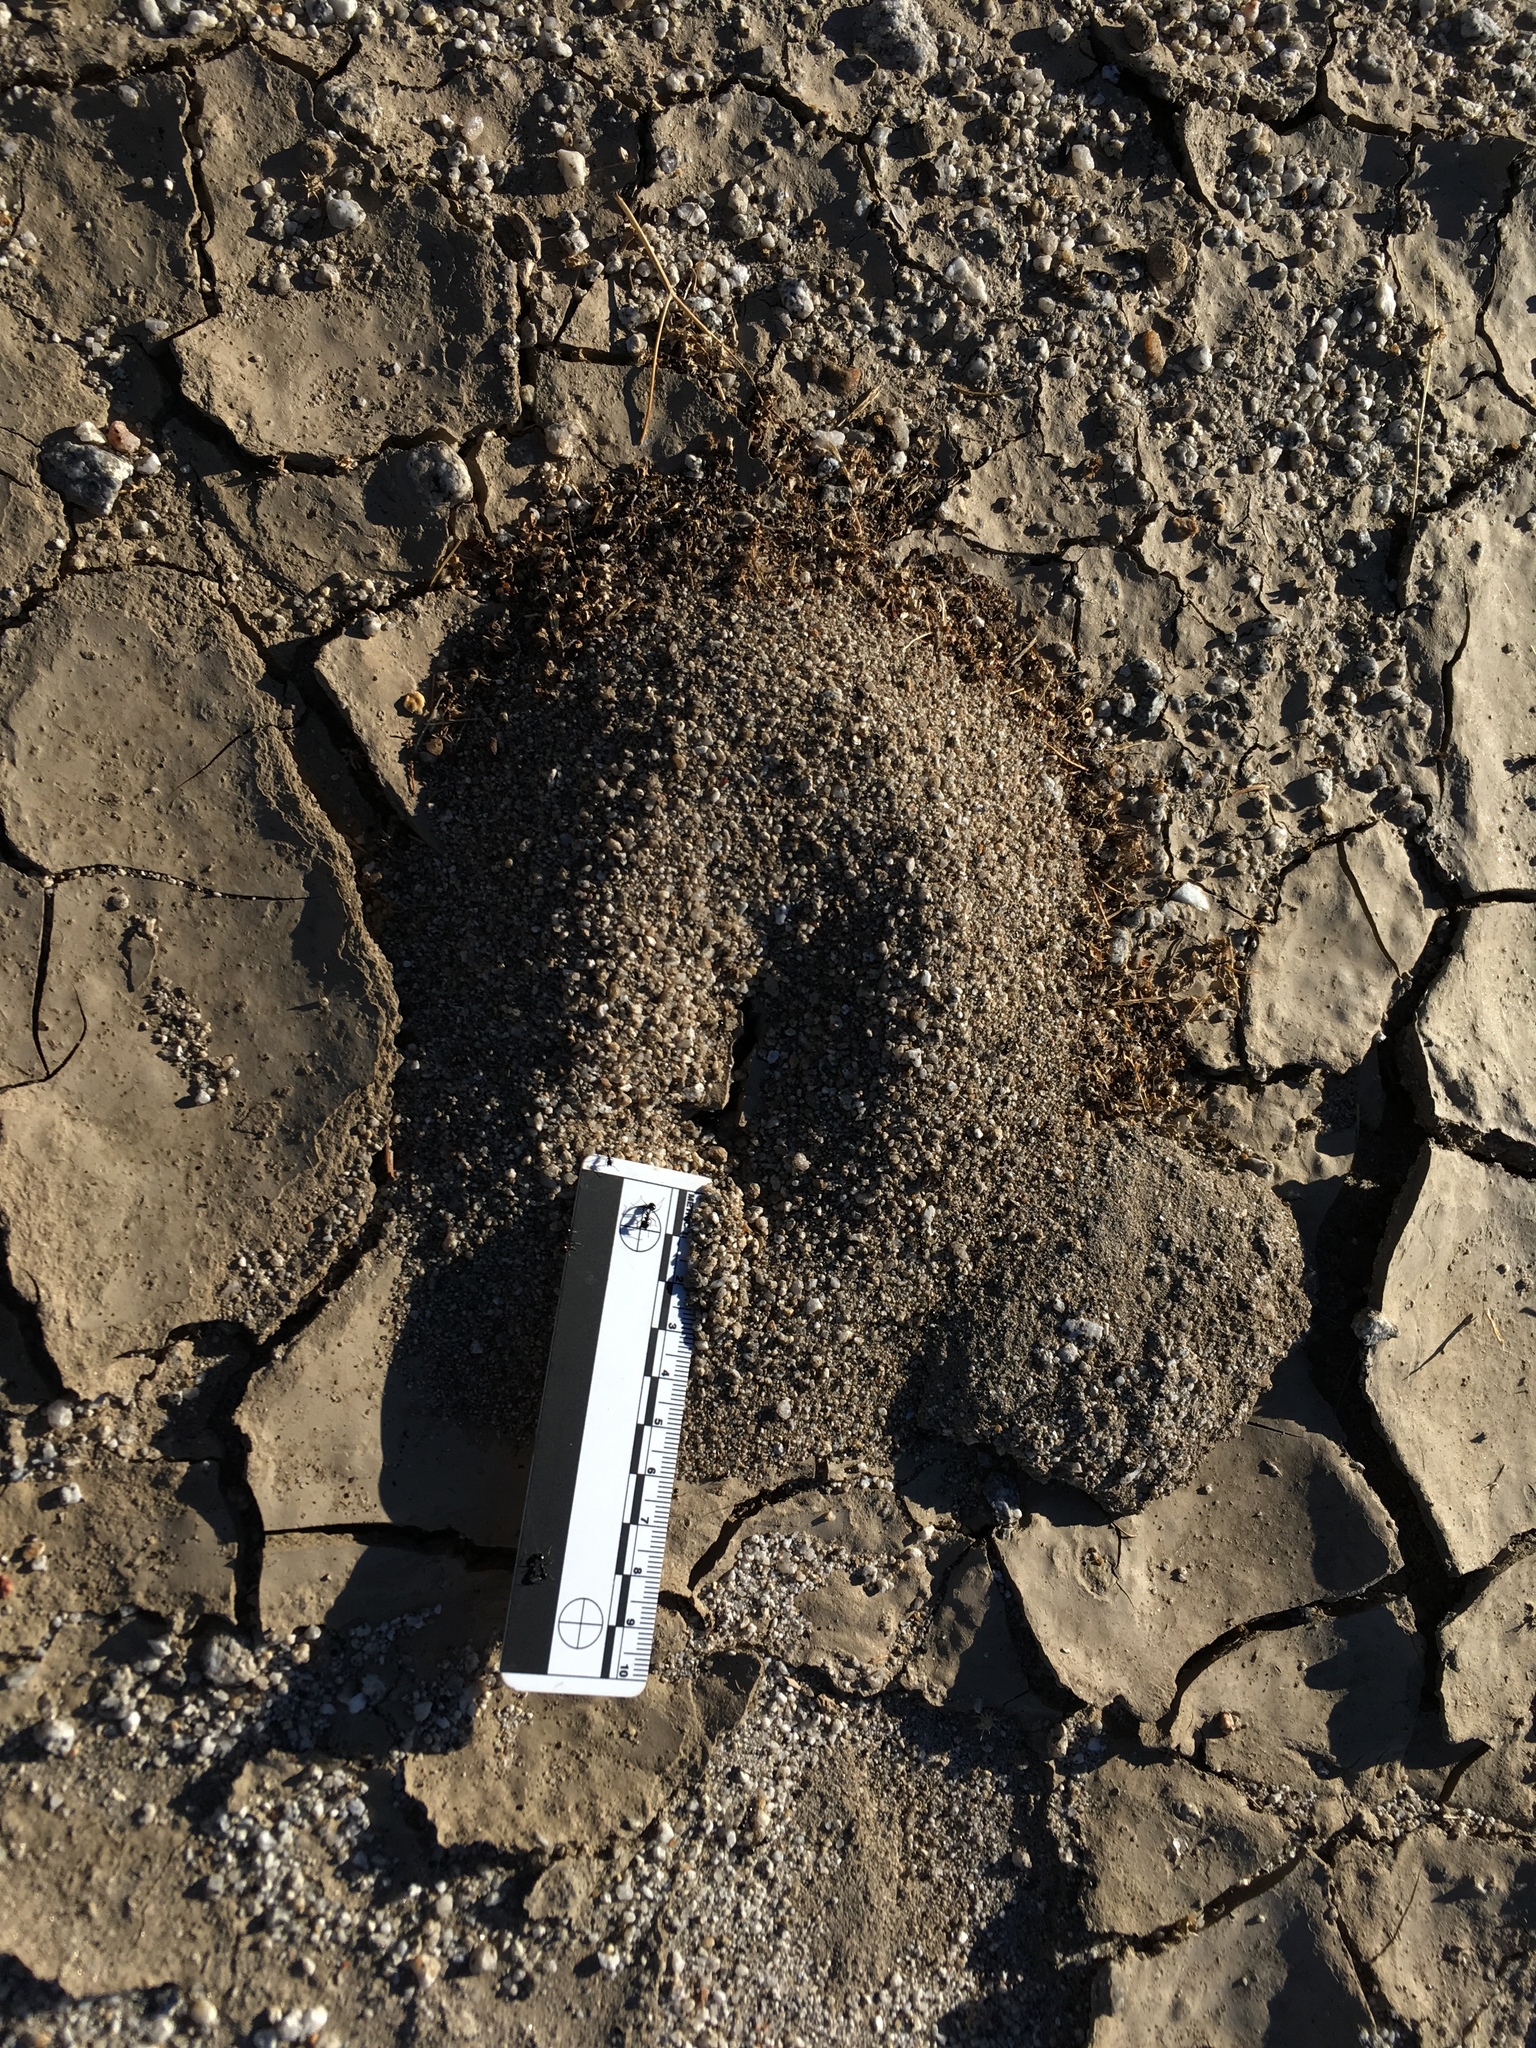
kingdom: Animalia
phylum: Arthropoda
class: Insecta
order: Hymenoptera
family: Formicidae
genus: Messor
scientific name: Messor pergandei
